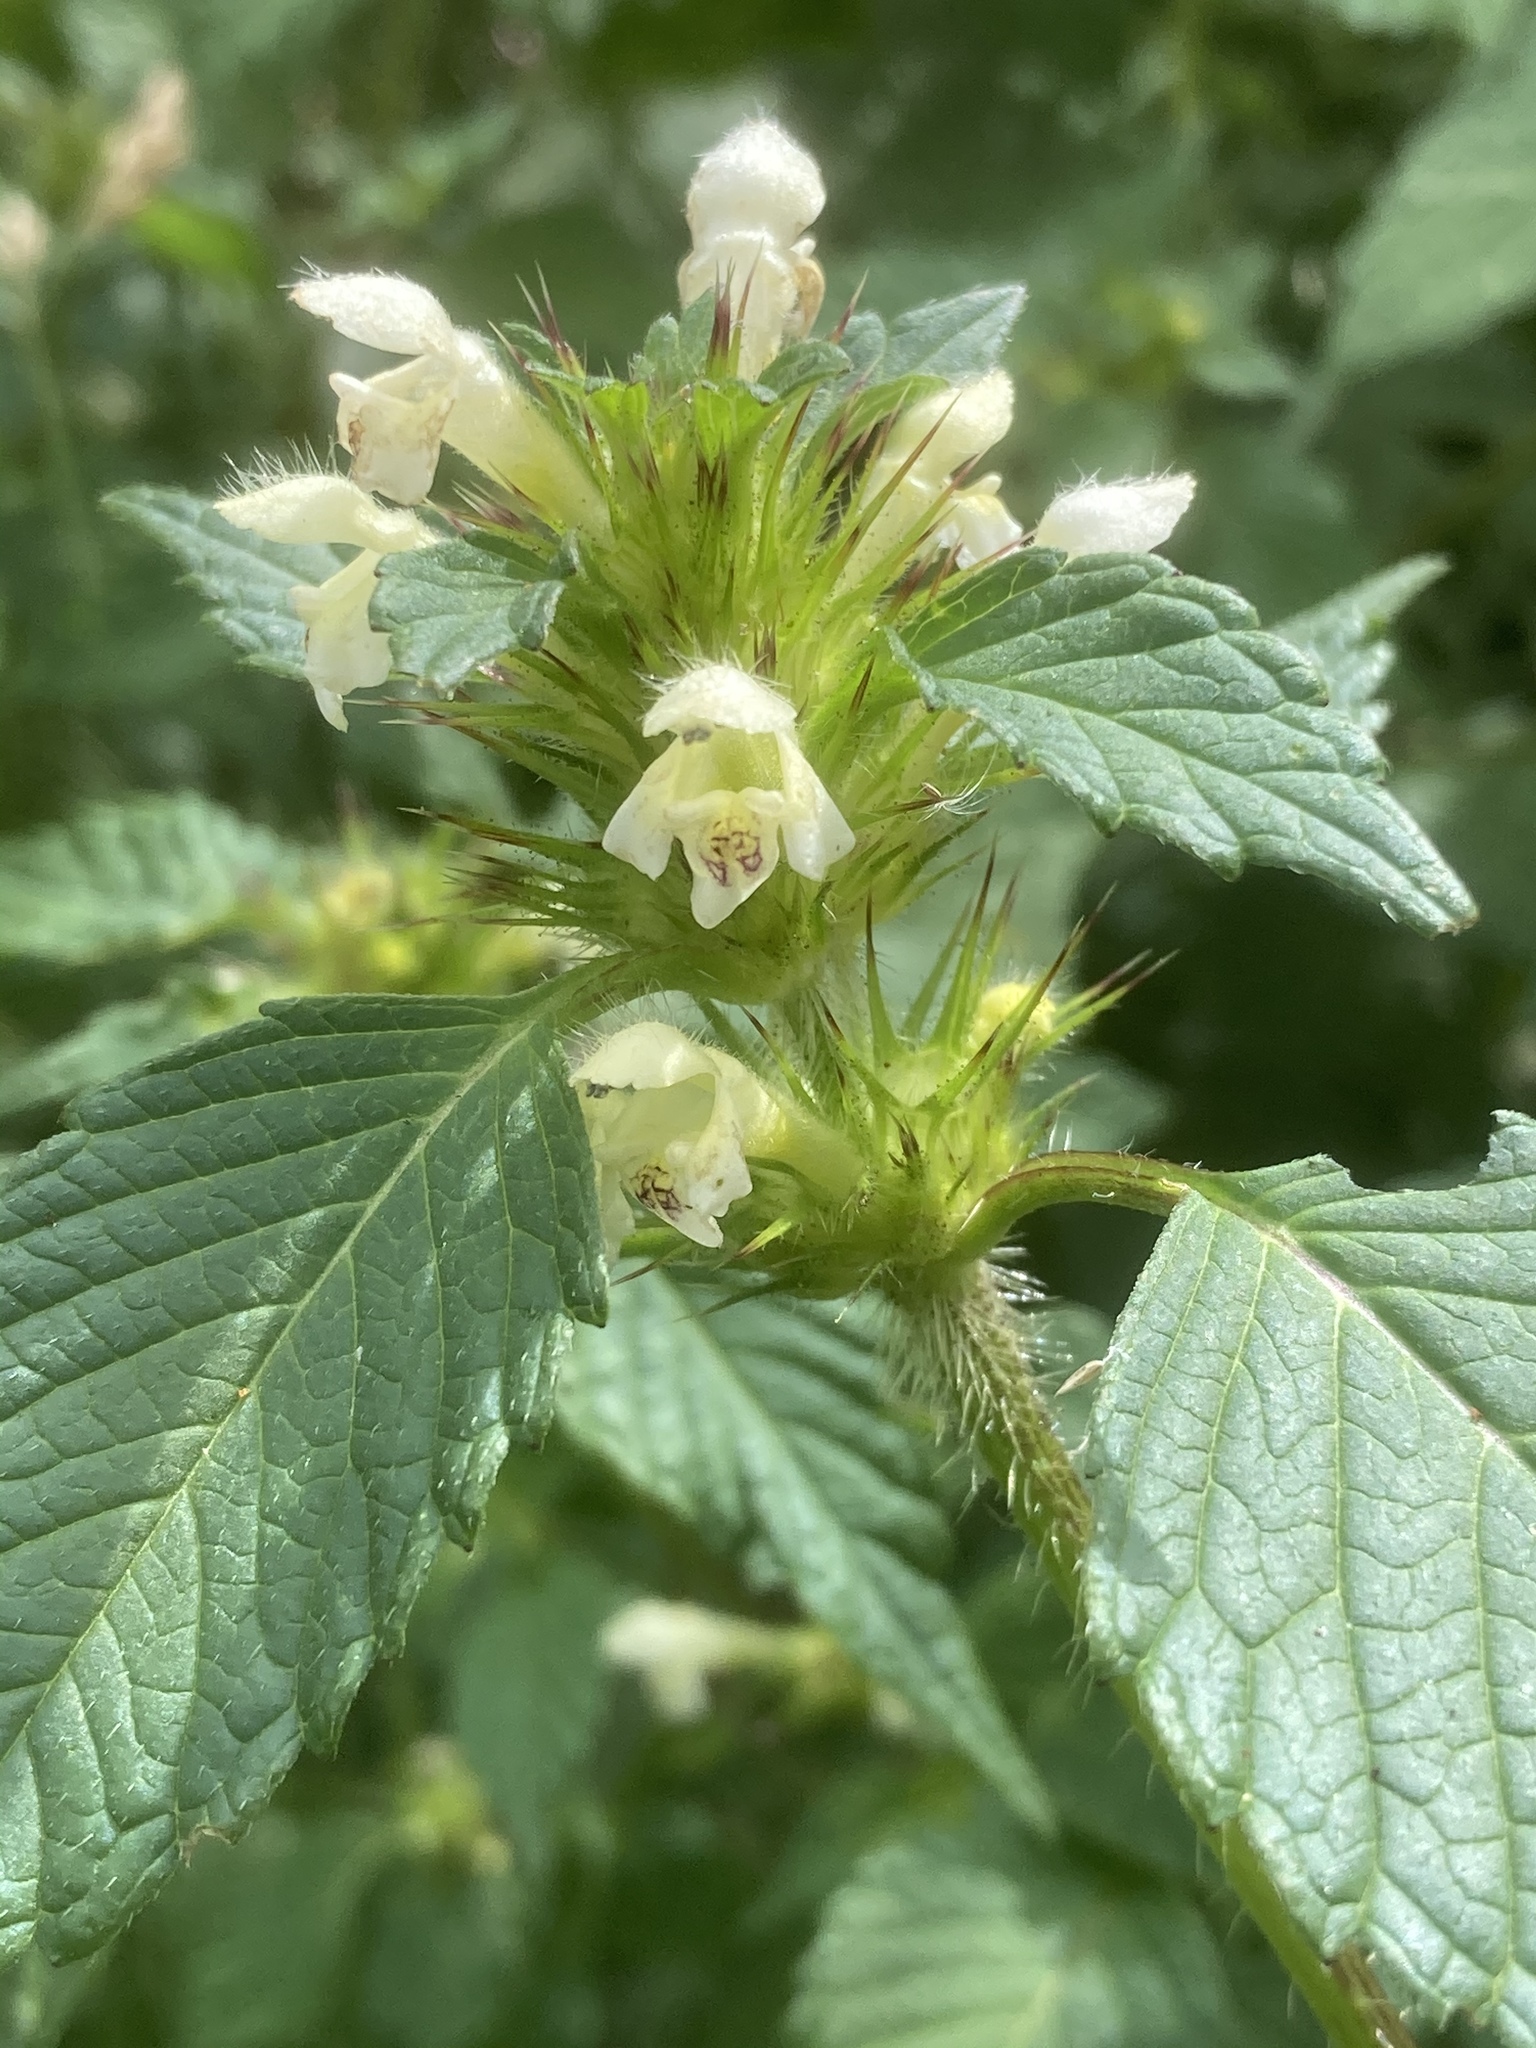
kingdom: Plantae
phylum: Tracheophyta
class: Magnoliopsida
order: Lamiales
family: Lamiaceae
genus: Galeopsis
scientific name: Galeopsis tetrahit
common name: Common hemp-nettle
